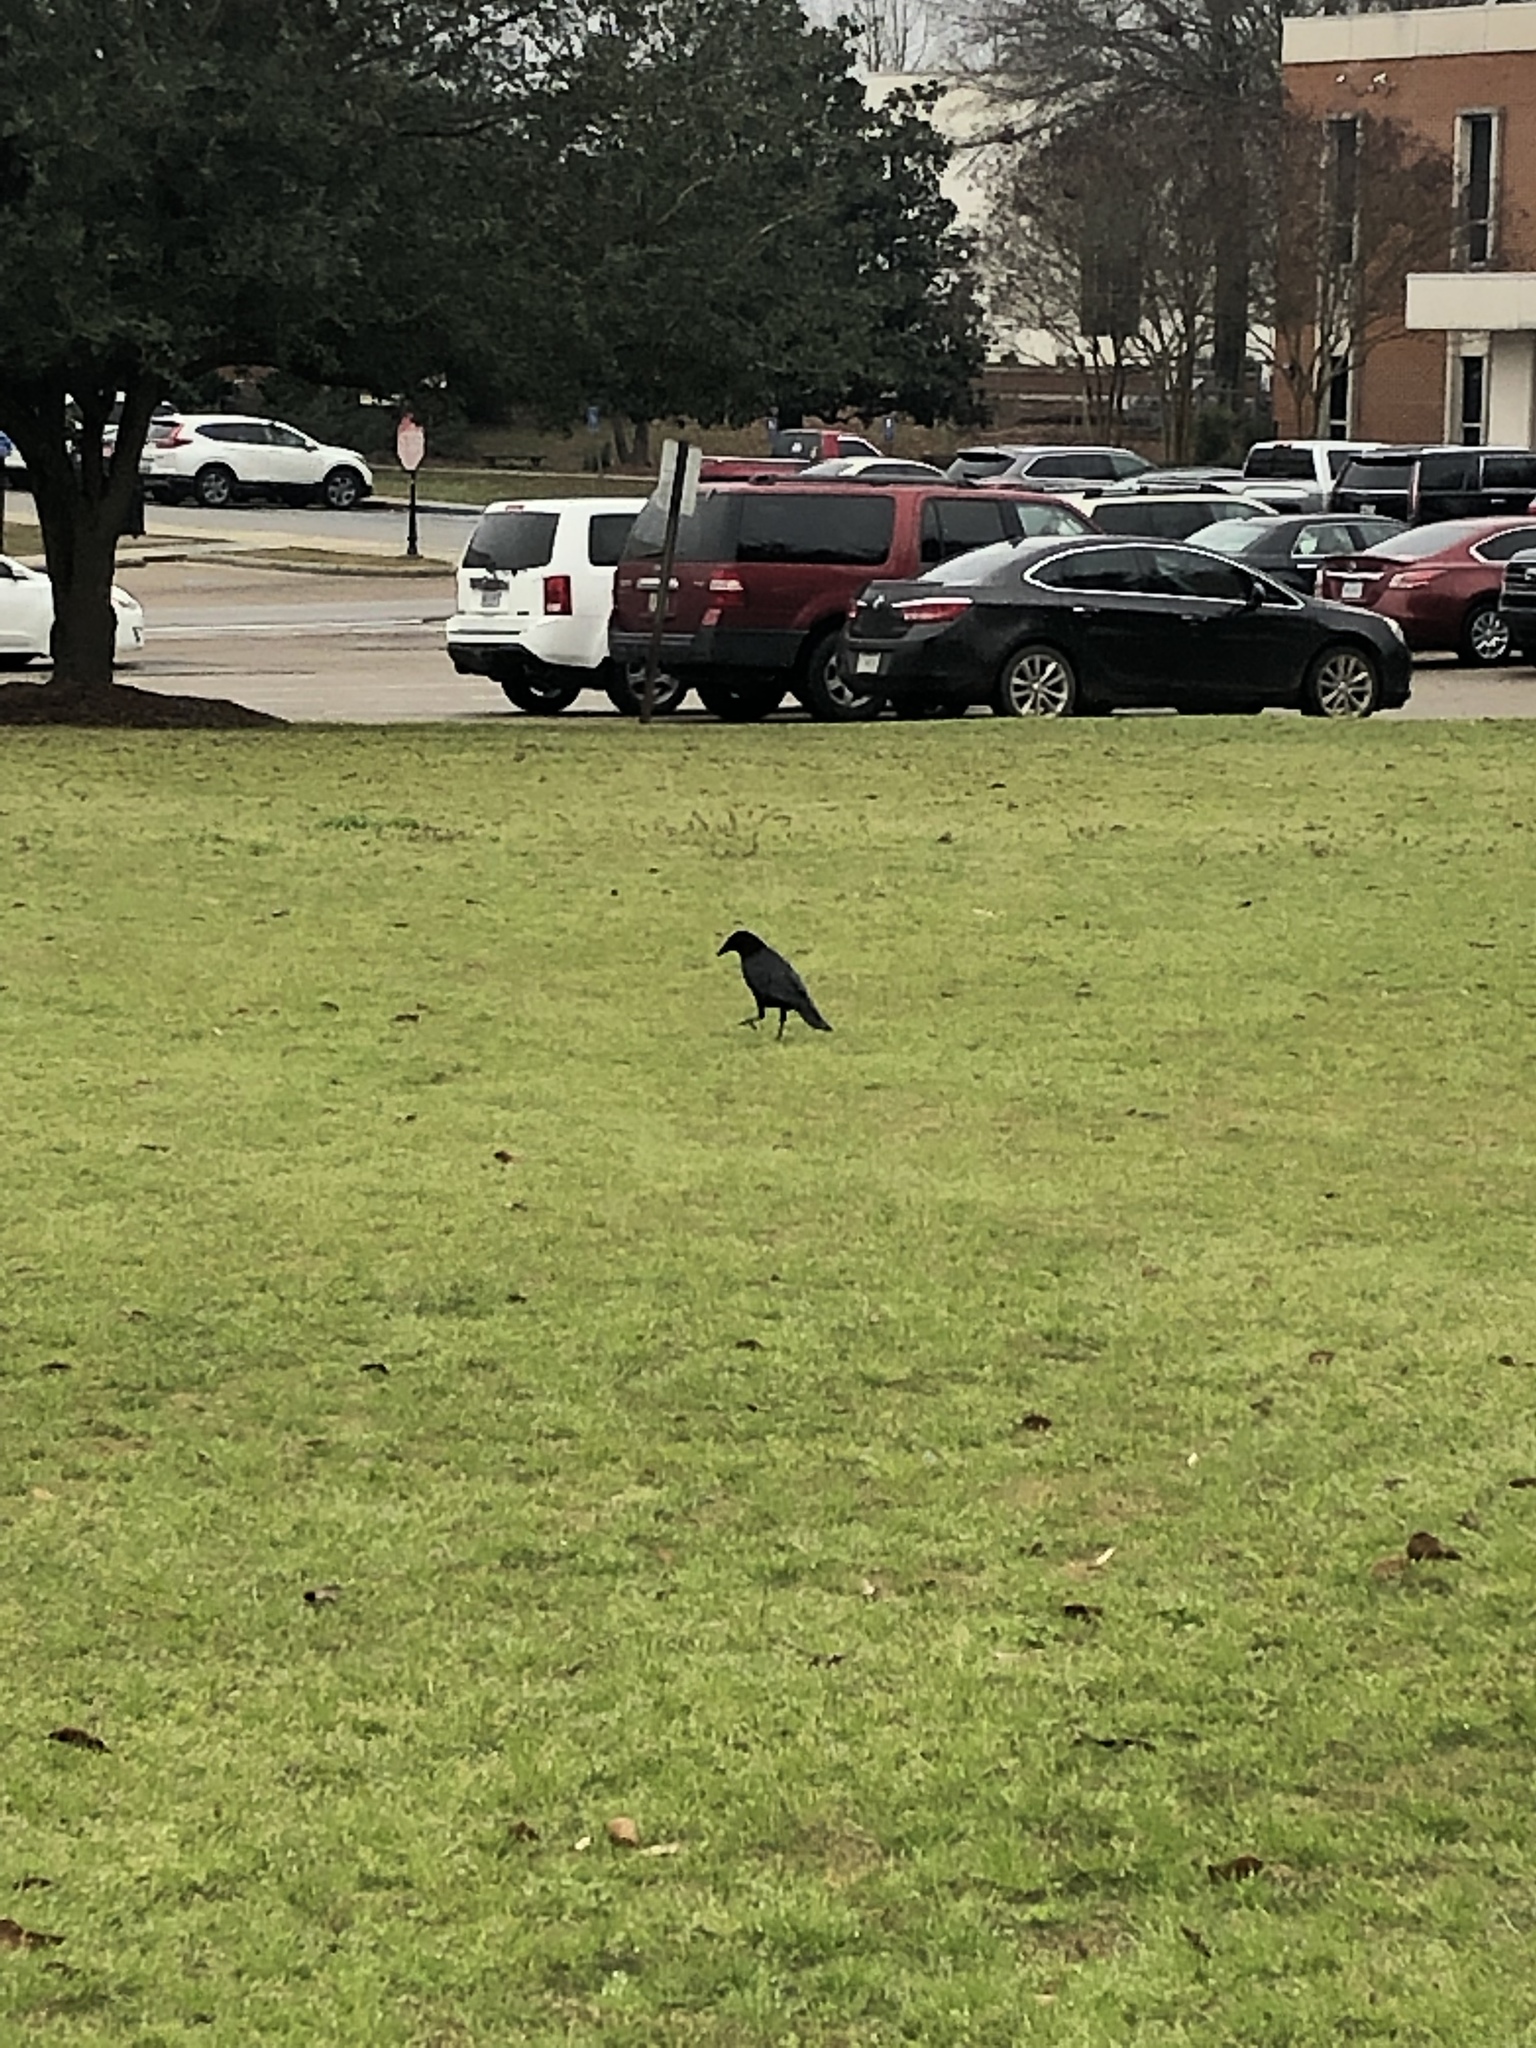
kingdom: Animalia
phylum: Chordata
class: Aves
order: Passeriformes
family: Corvidae
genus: Corvus
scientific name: Corvus
